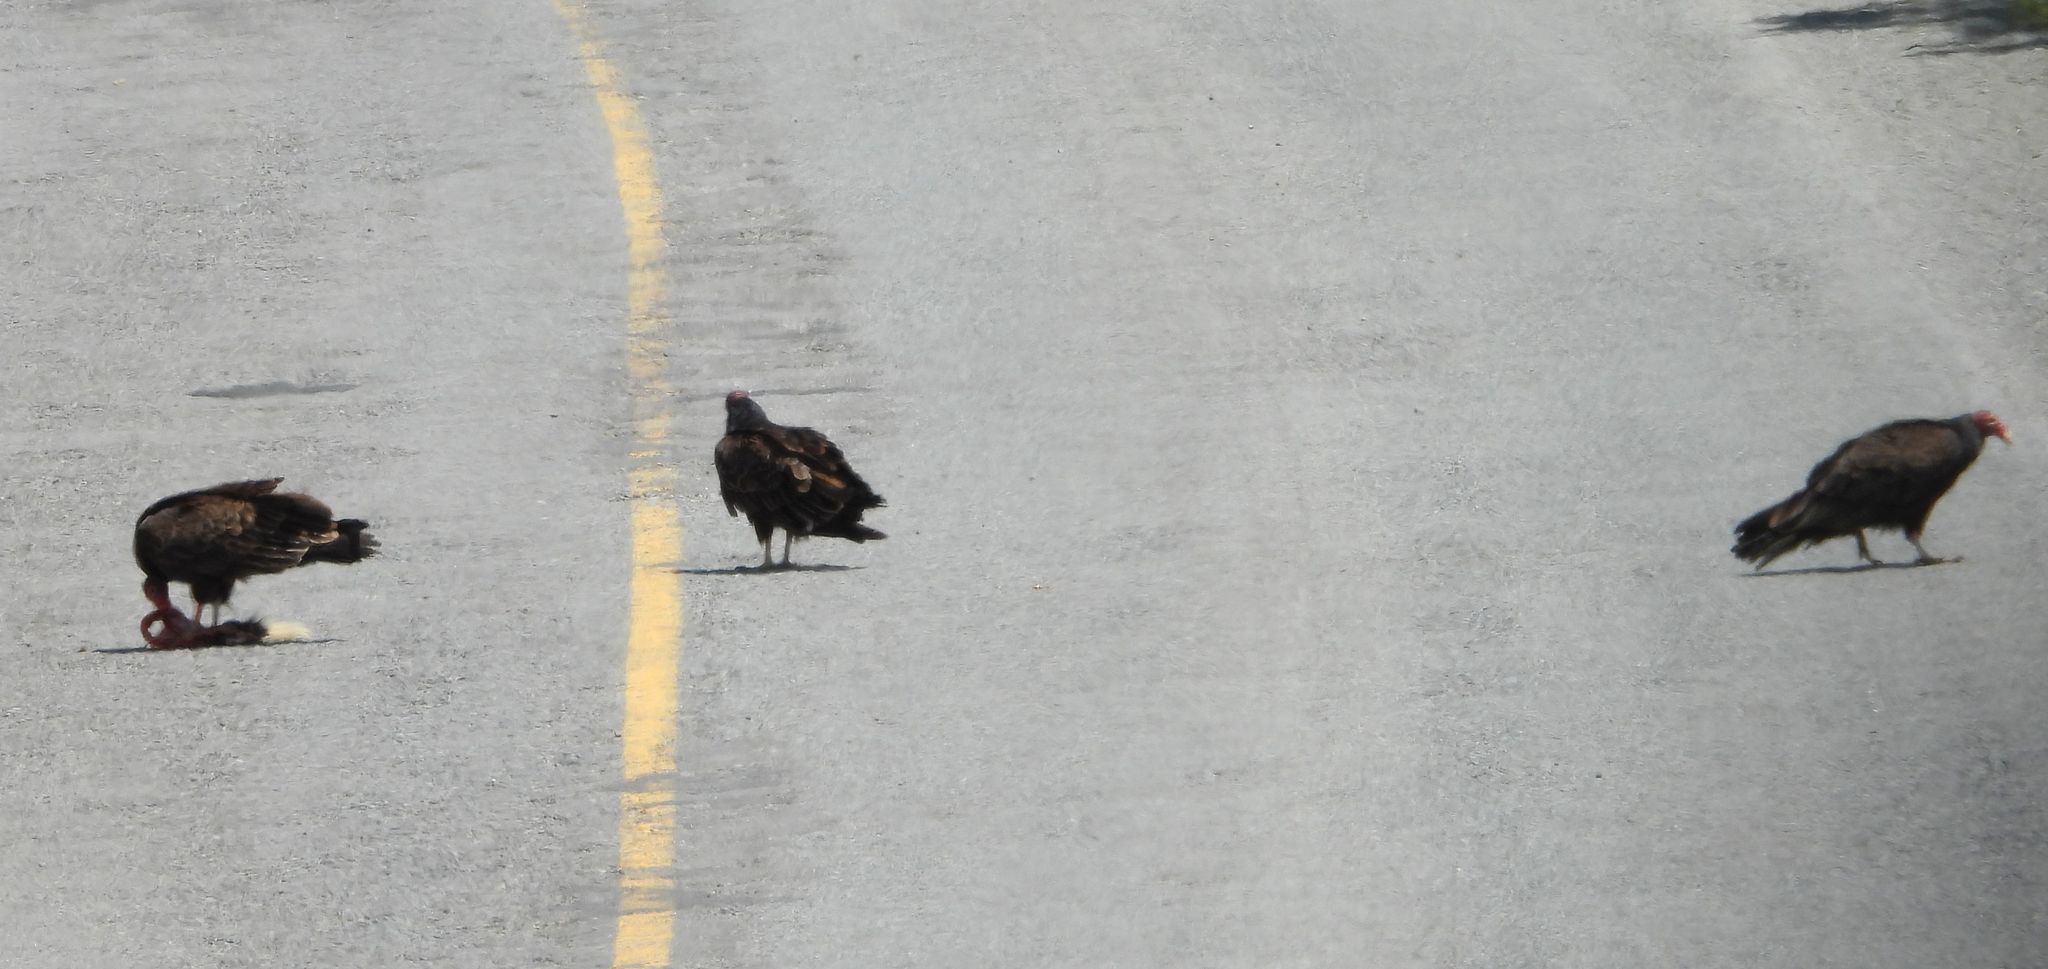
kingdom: Animalia
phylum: Chordata
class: Aves
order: Accipitriformes
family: Cathartidae
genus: Cathartes
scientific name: Cathartes aura
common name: Turkey vulture
